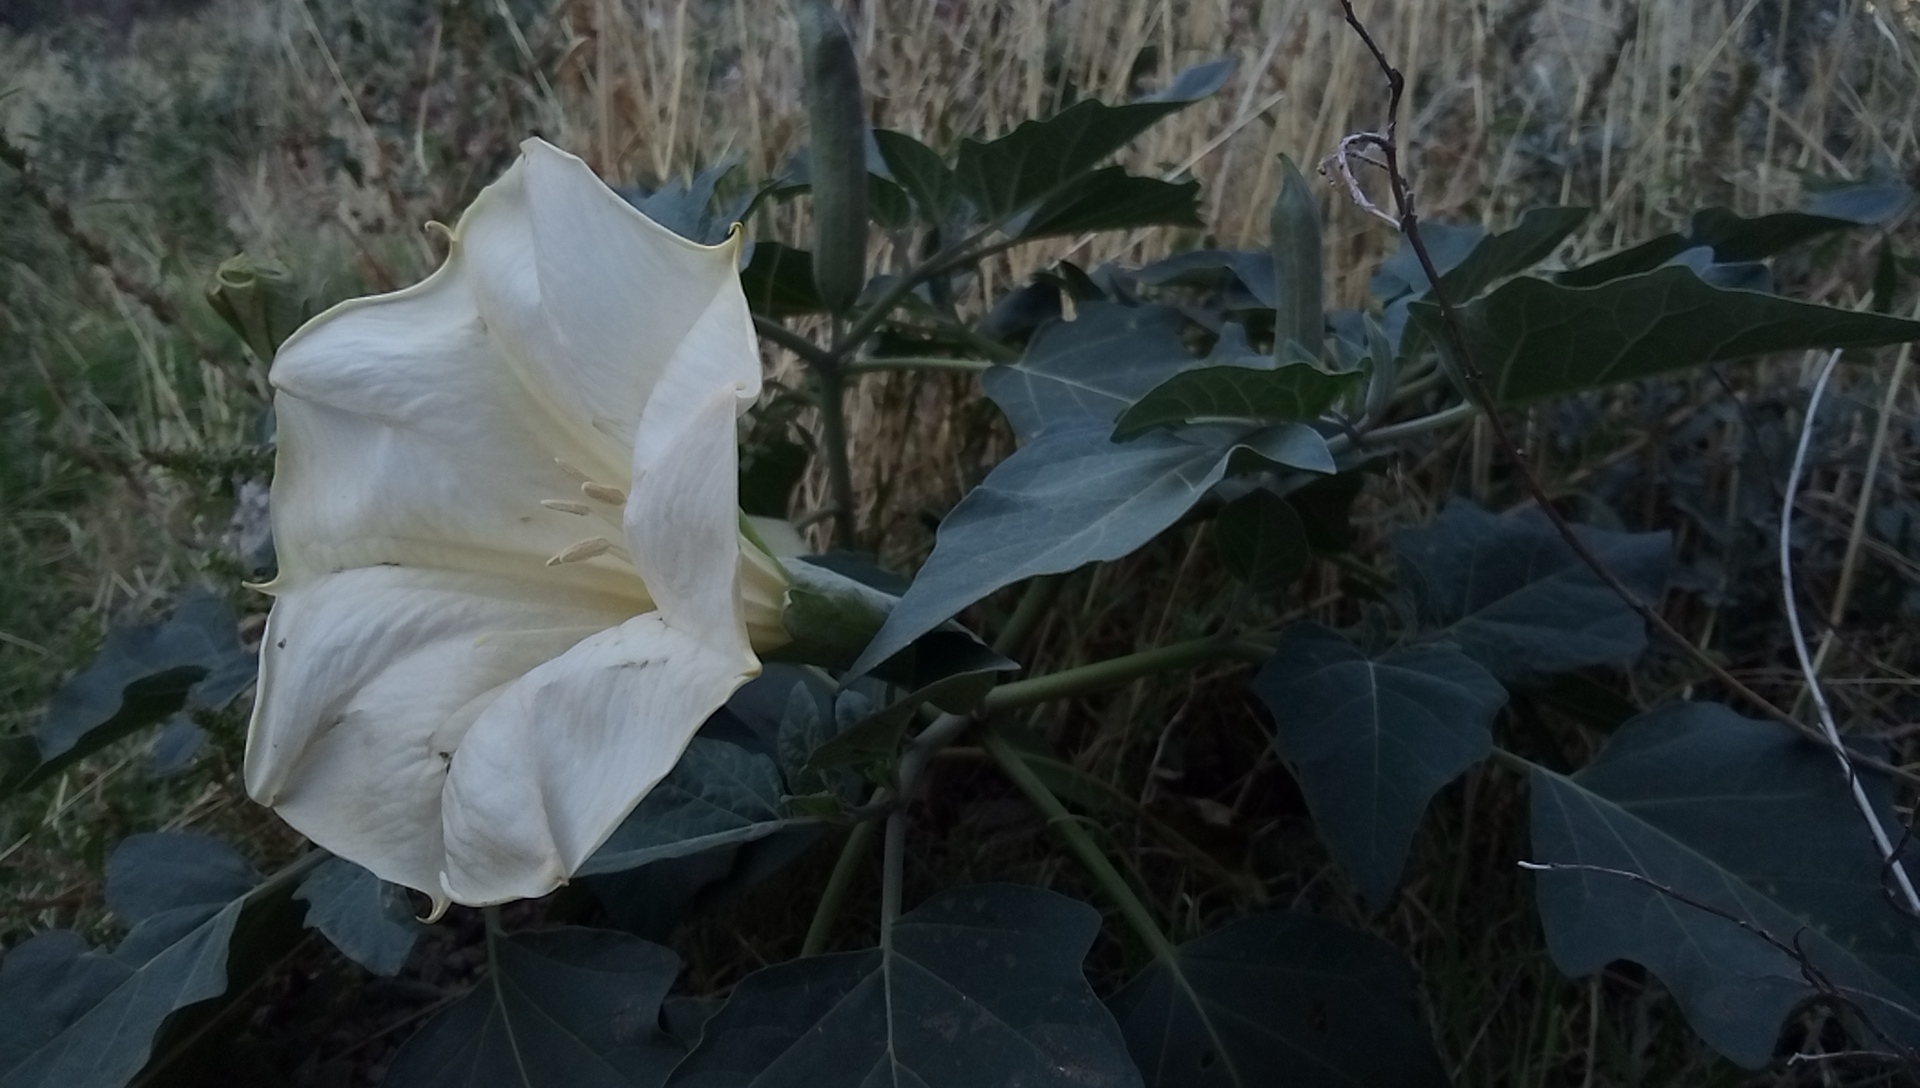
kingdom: Plantae
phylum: Tracheophyta
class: Magnoliopsida
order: Solanales
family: Solanaceae
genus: Datura
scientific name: Datura wrightii
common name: Sacred thorn-apple
